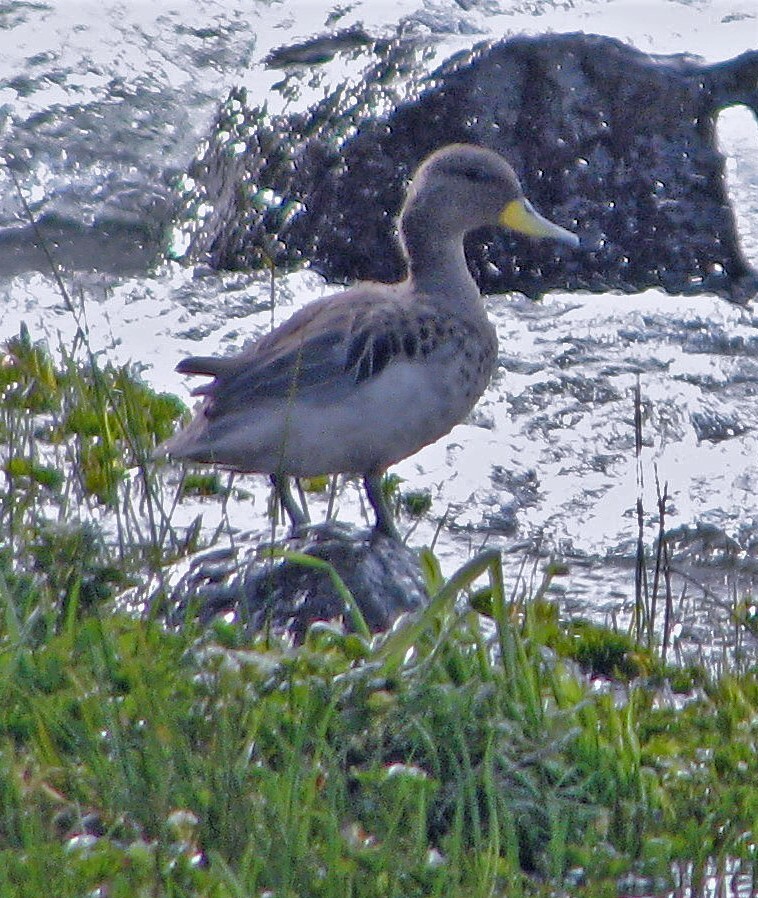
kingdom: Animalia
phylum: Chordata
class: Aves
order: Anseriformes
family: Anatidae
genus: Anas
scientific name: Anas flavirostris
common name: Yellow-billed teal
